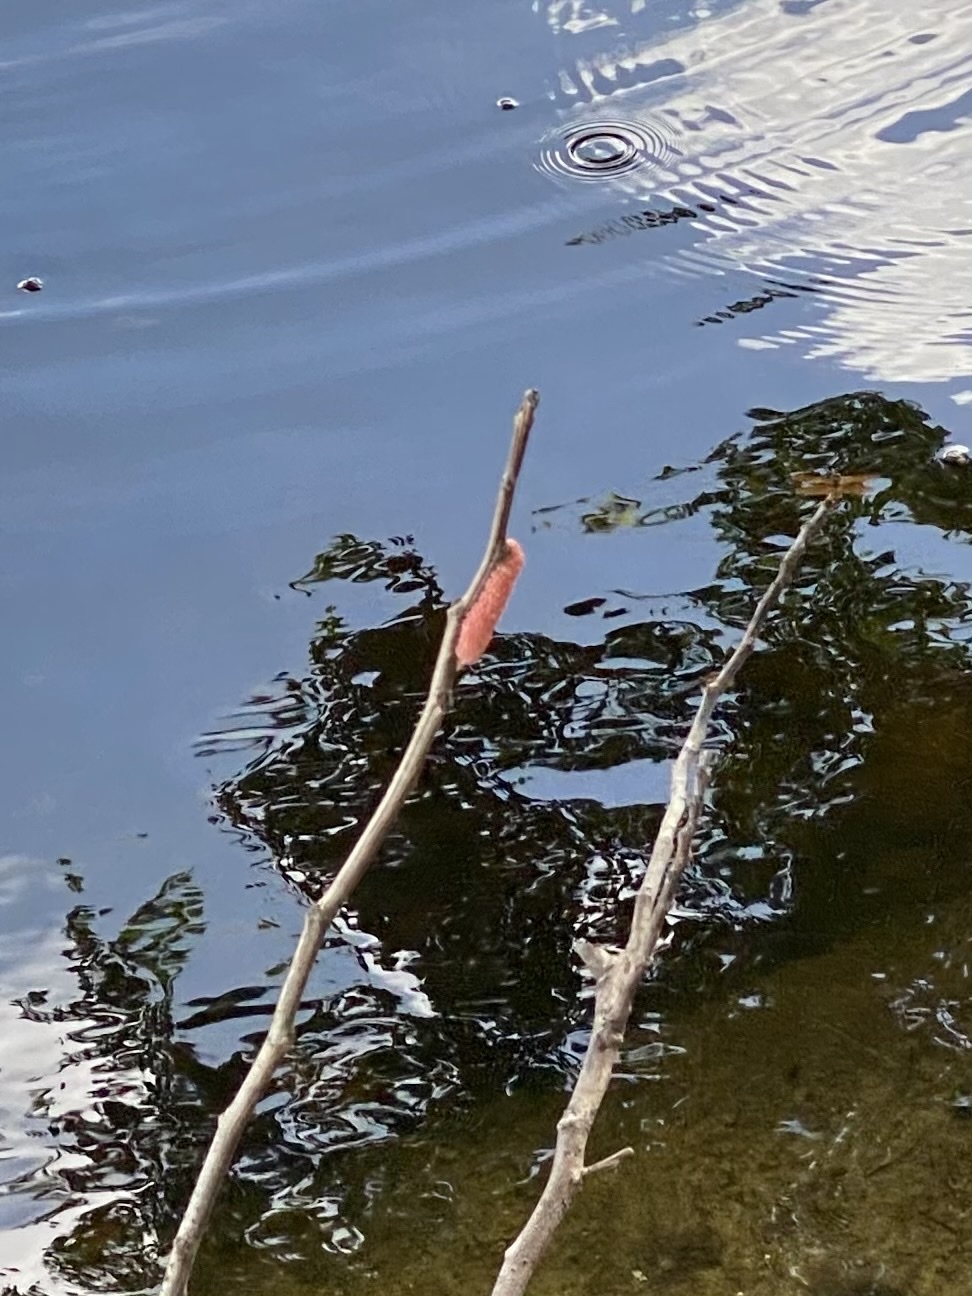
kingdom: Animalia
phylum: Mollusca
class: Gastropoda
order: Architaenioglossa
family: Ampullariidae
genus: Pomacea
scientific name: Pomacea maculata
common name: Giant applesnail
